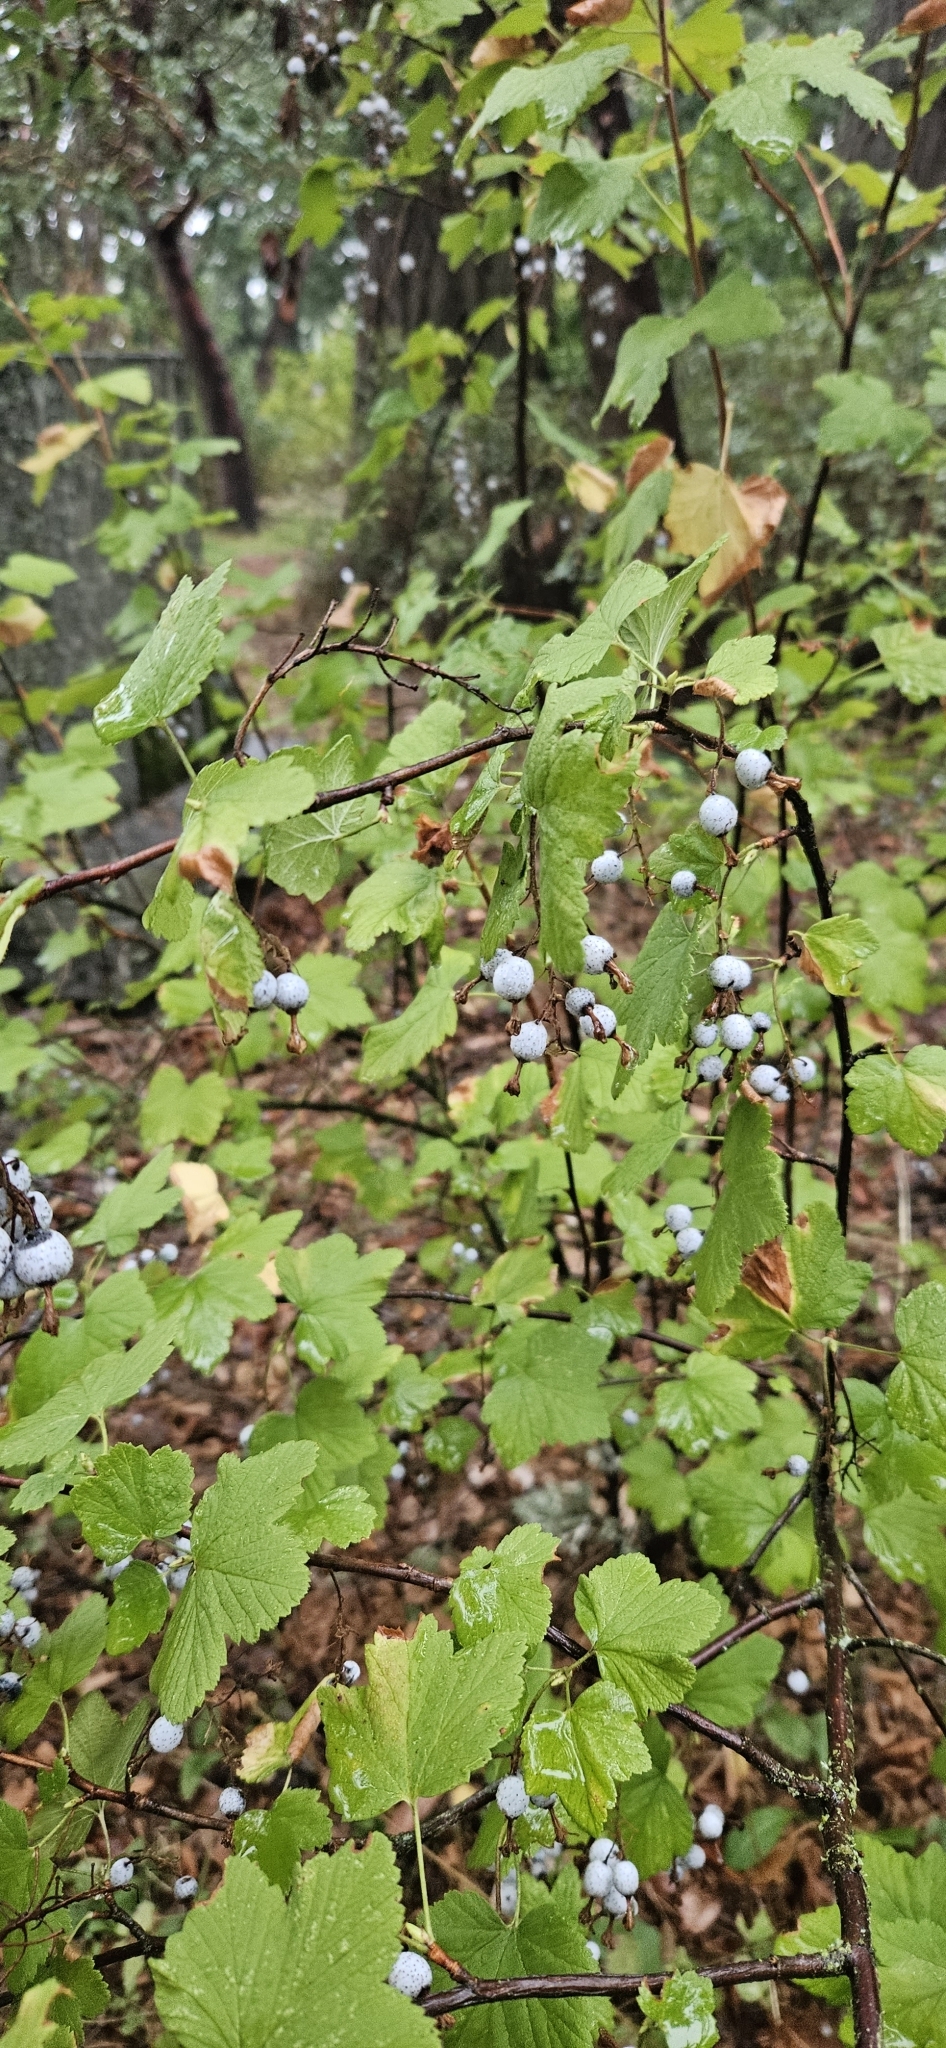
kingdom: Plantae
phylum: Tracheophyta
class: Magnoliopsida
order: Saxifragales
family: Grossulariaceae
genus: Ribes
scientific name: Ribes sanguineum
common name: Flowering currant
